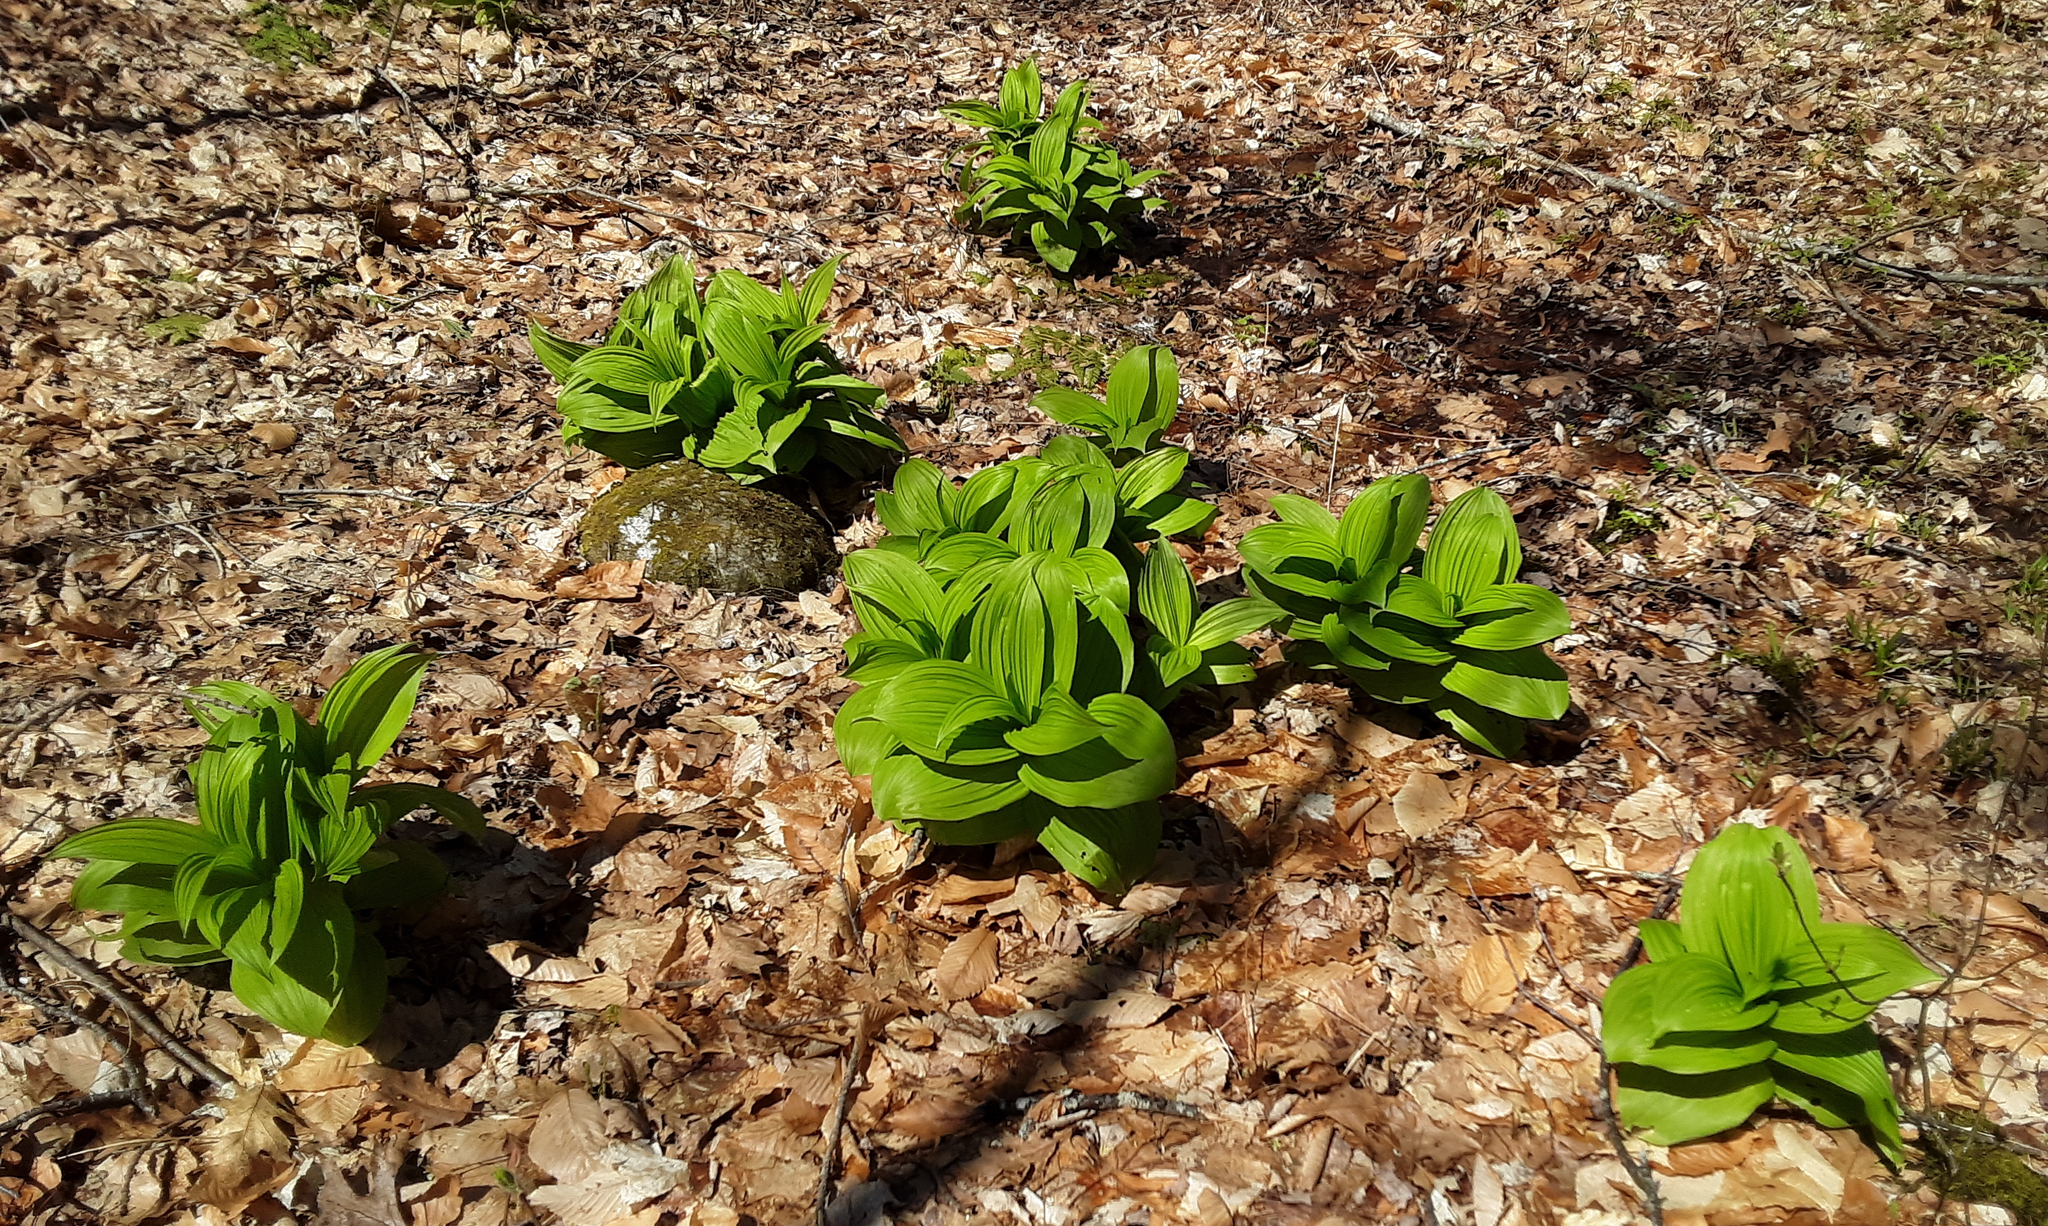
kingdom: Plantae
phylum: Tracheophyta
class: Liliopsida
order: Liliales
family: Melanthiaceae
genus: Veratrum
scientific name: Veratrum viride
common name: American false hellebore
